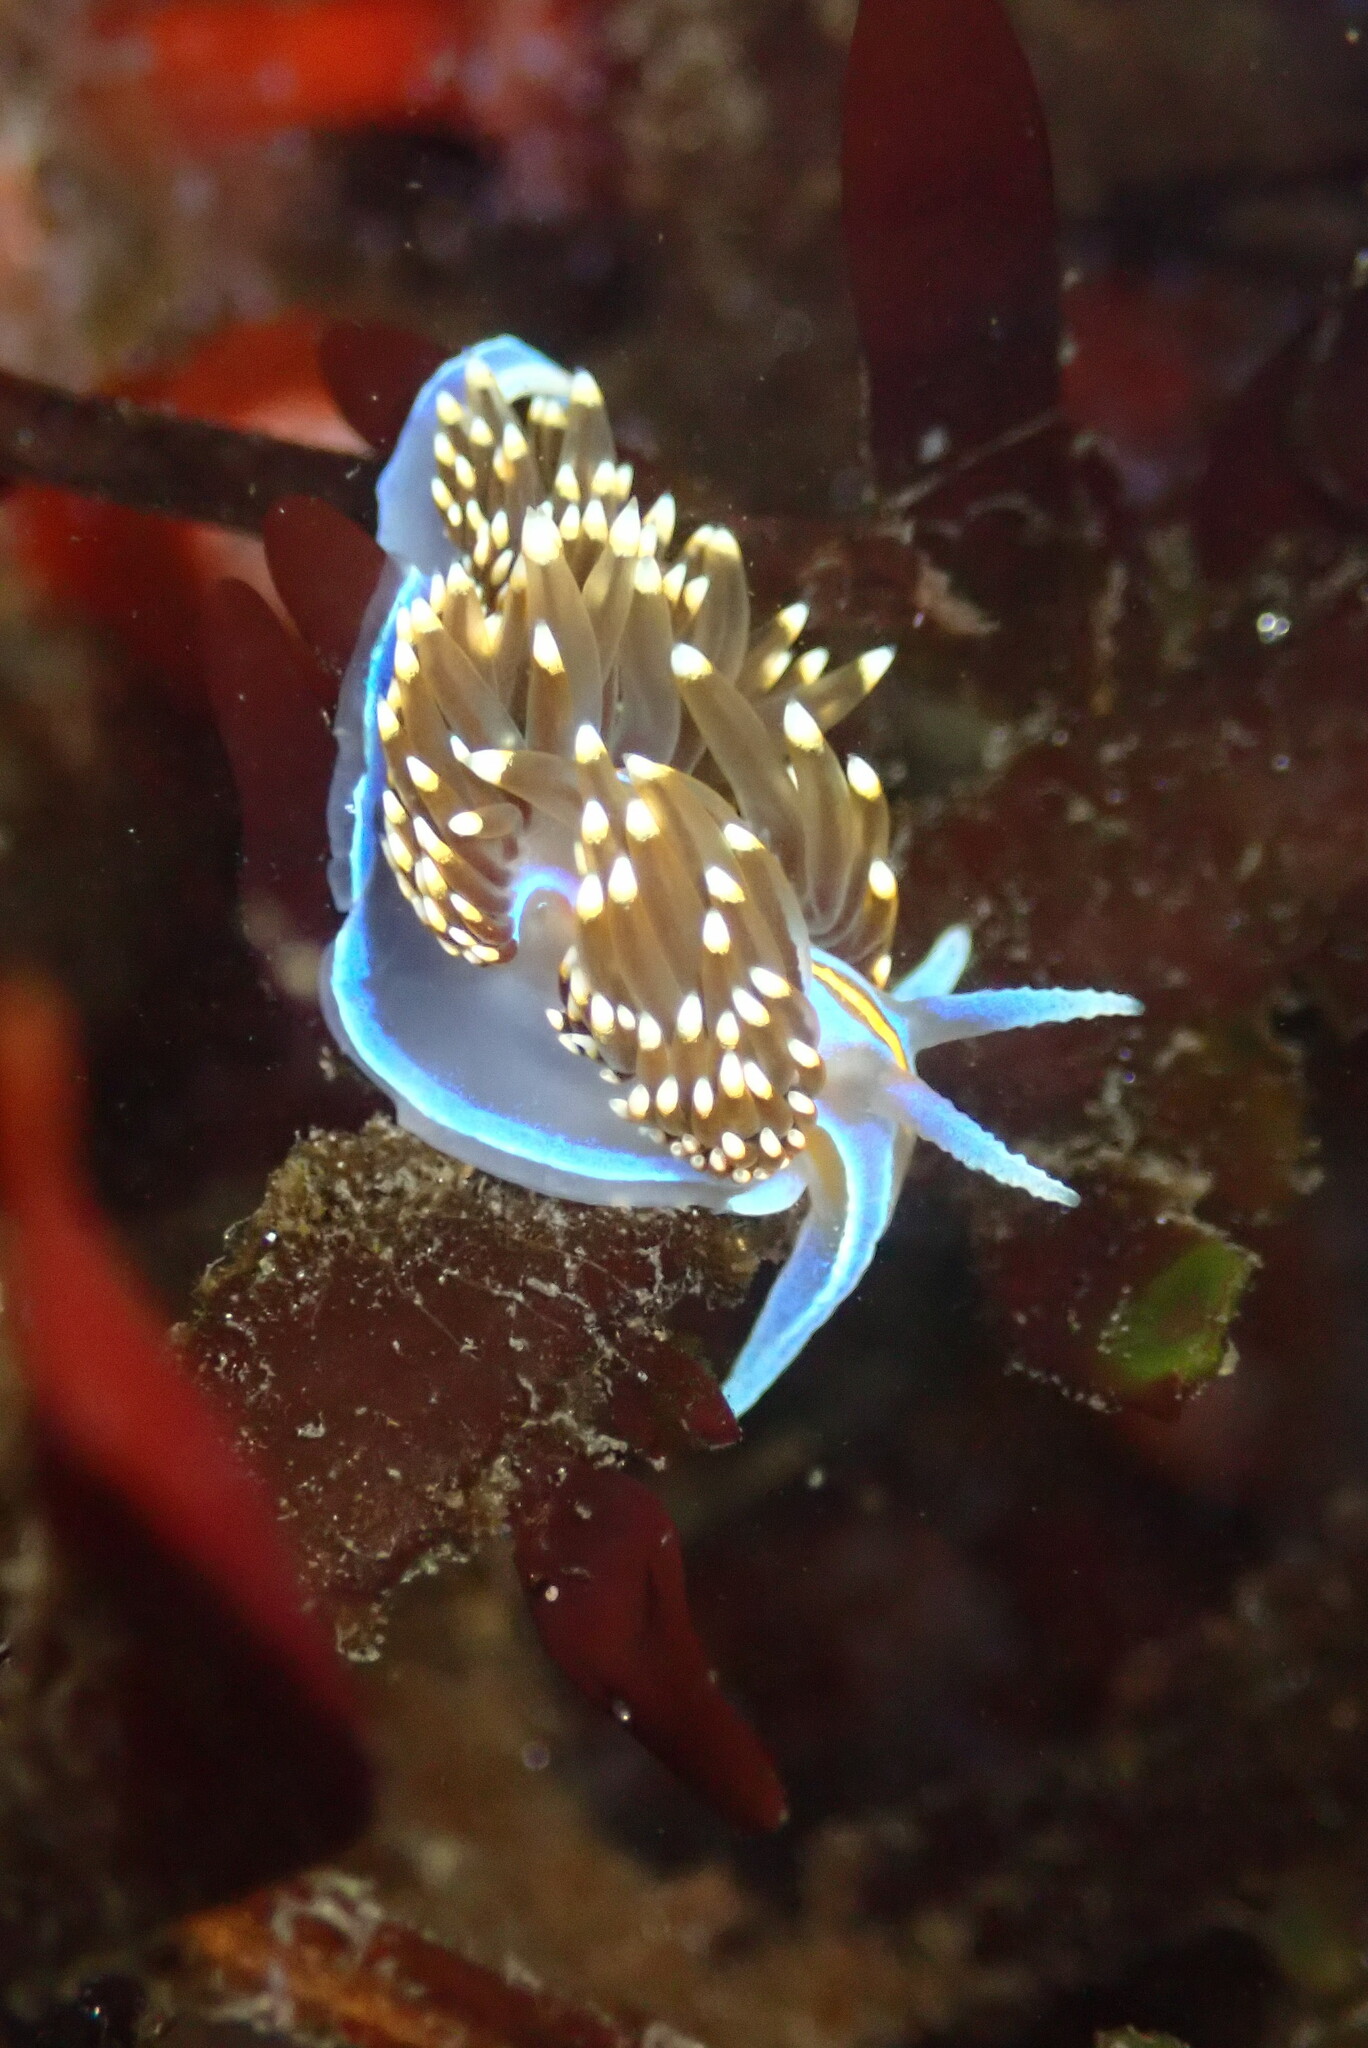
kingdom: Animalia
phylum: Mollusca
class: Gastropoda
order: Nudibranchia
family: Myrrhinidae
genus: Hermissenda
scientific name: Hermissenda opalescens
